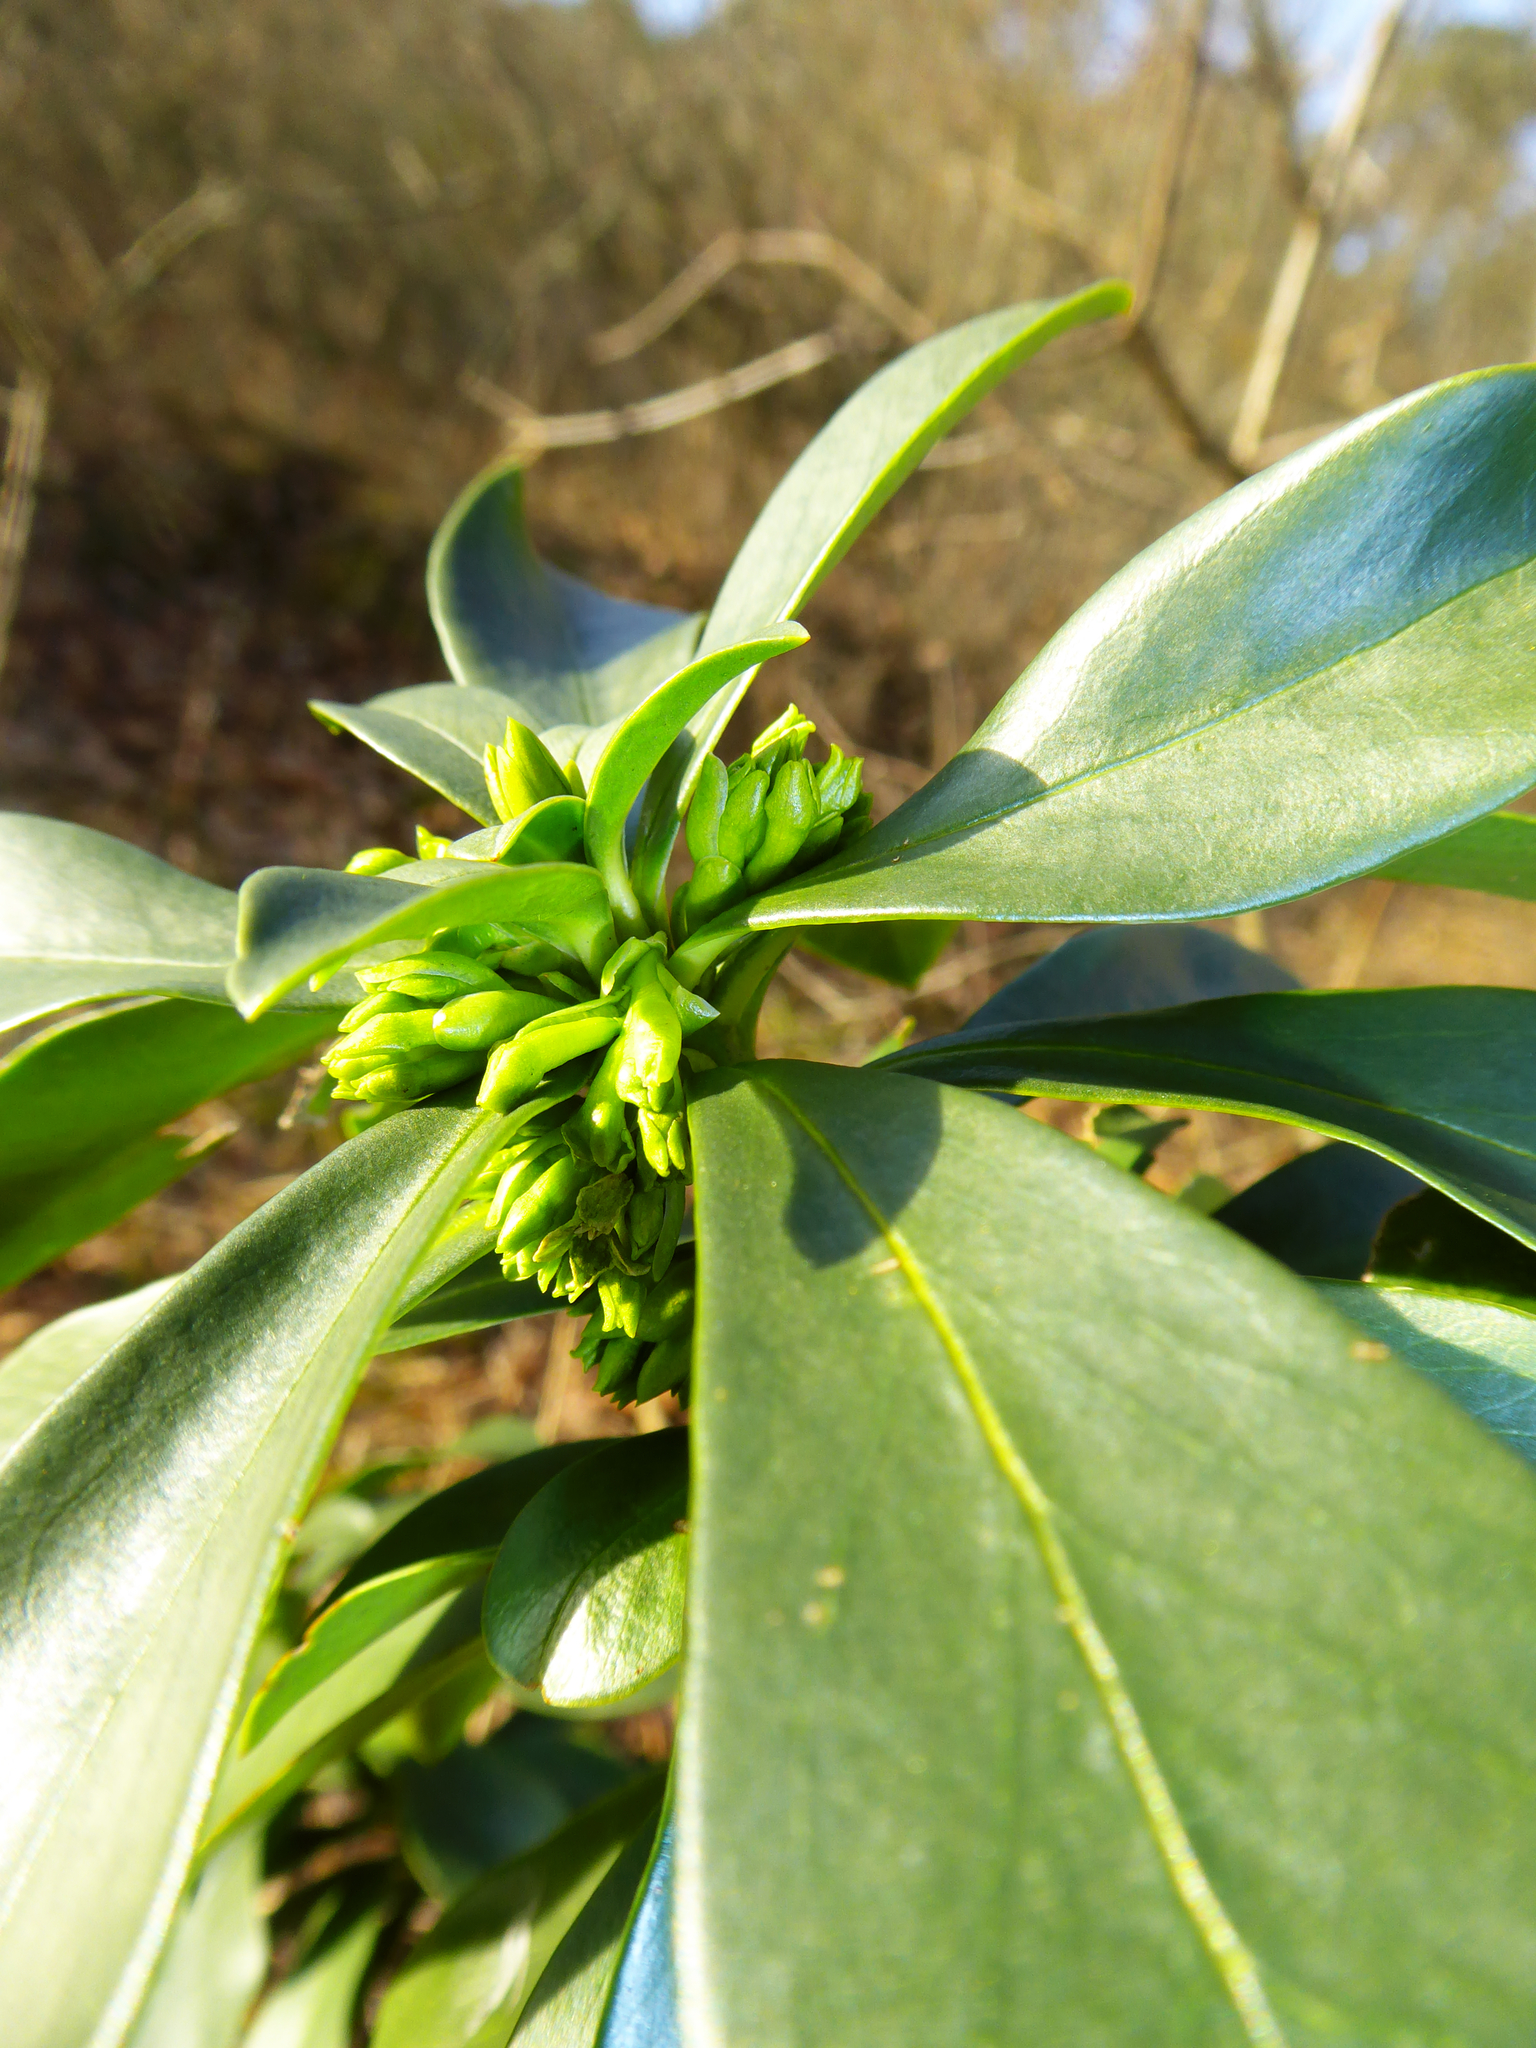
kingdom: Plantae
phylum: Tracheophyta
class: Magnoliopsida
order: Malvales
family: Thymelaeaceae
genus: Daphne
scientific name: Daphne laureola
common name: Spurge-laurel
